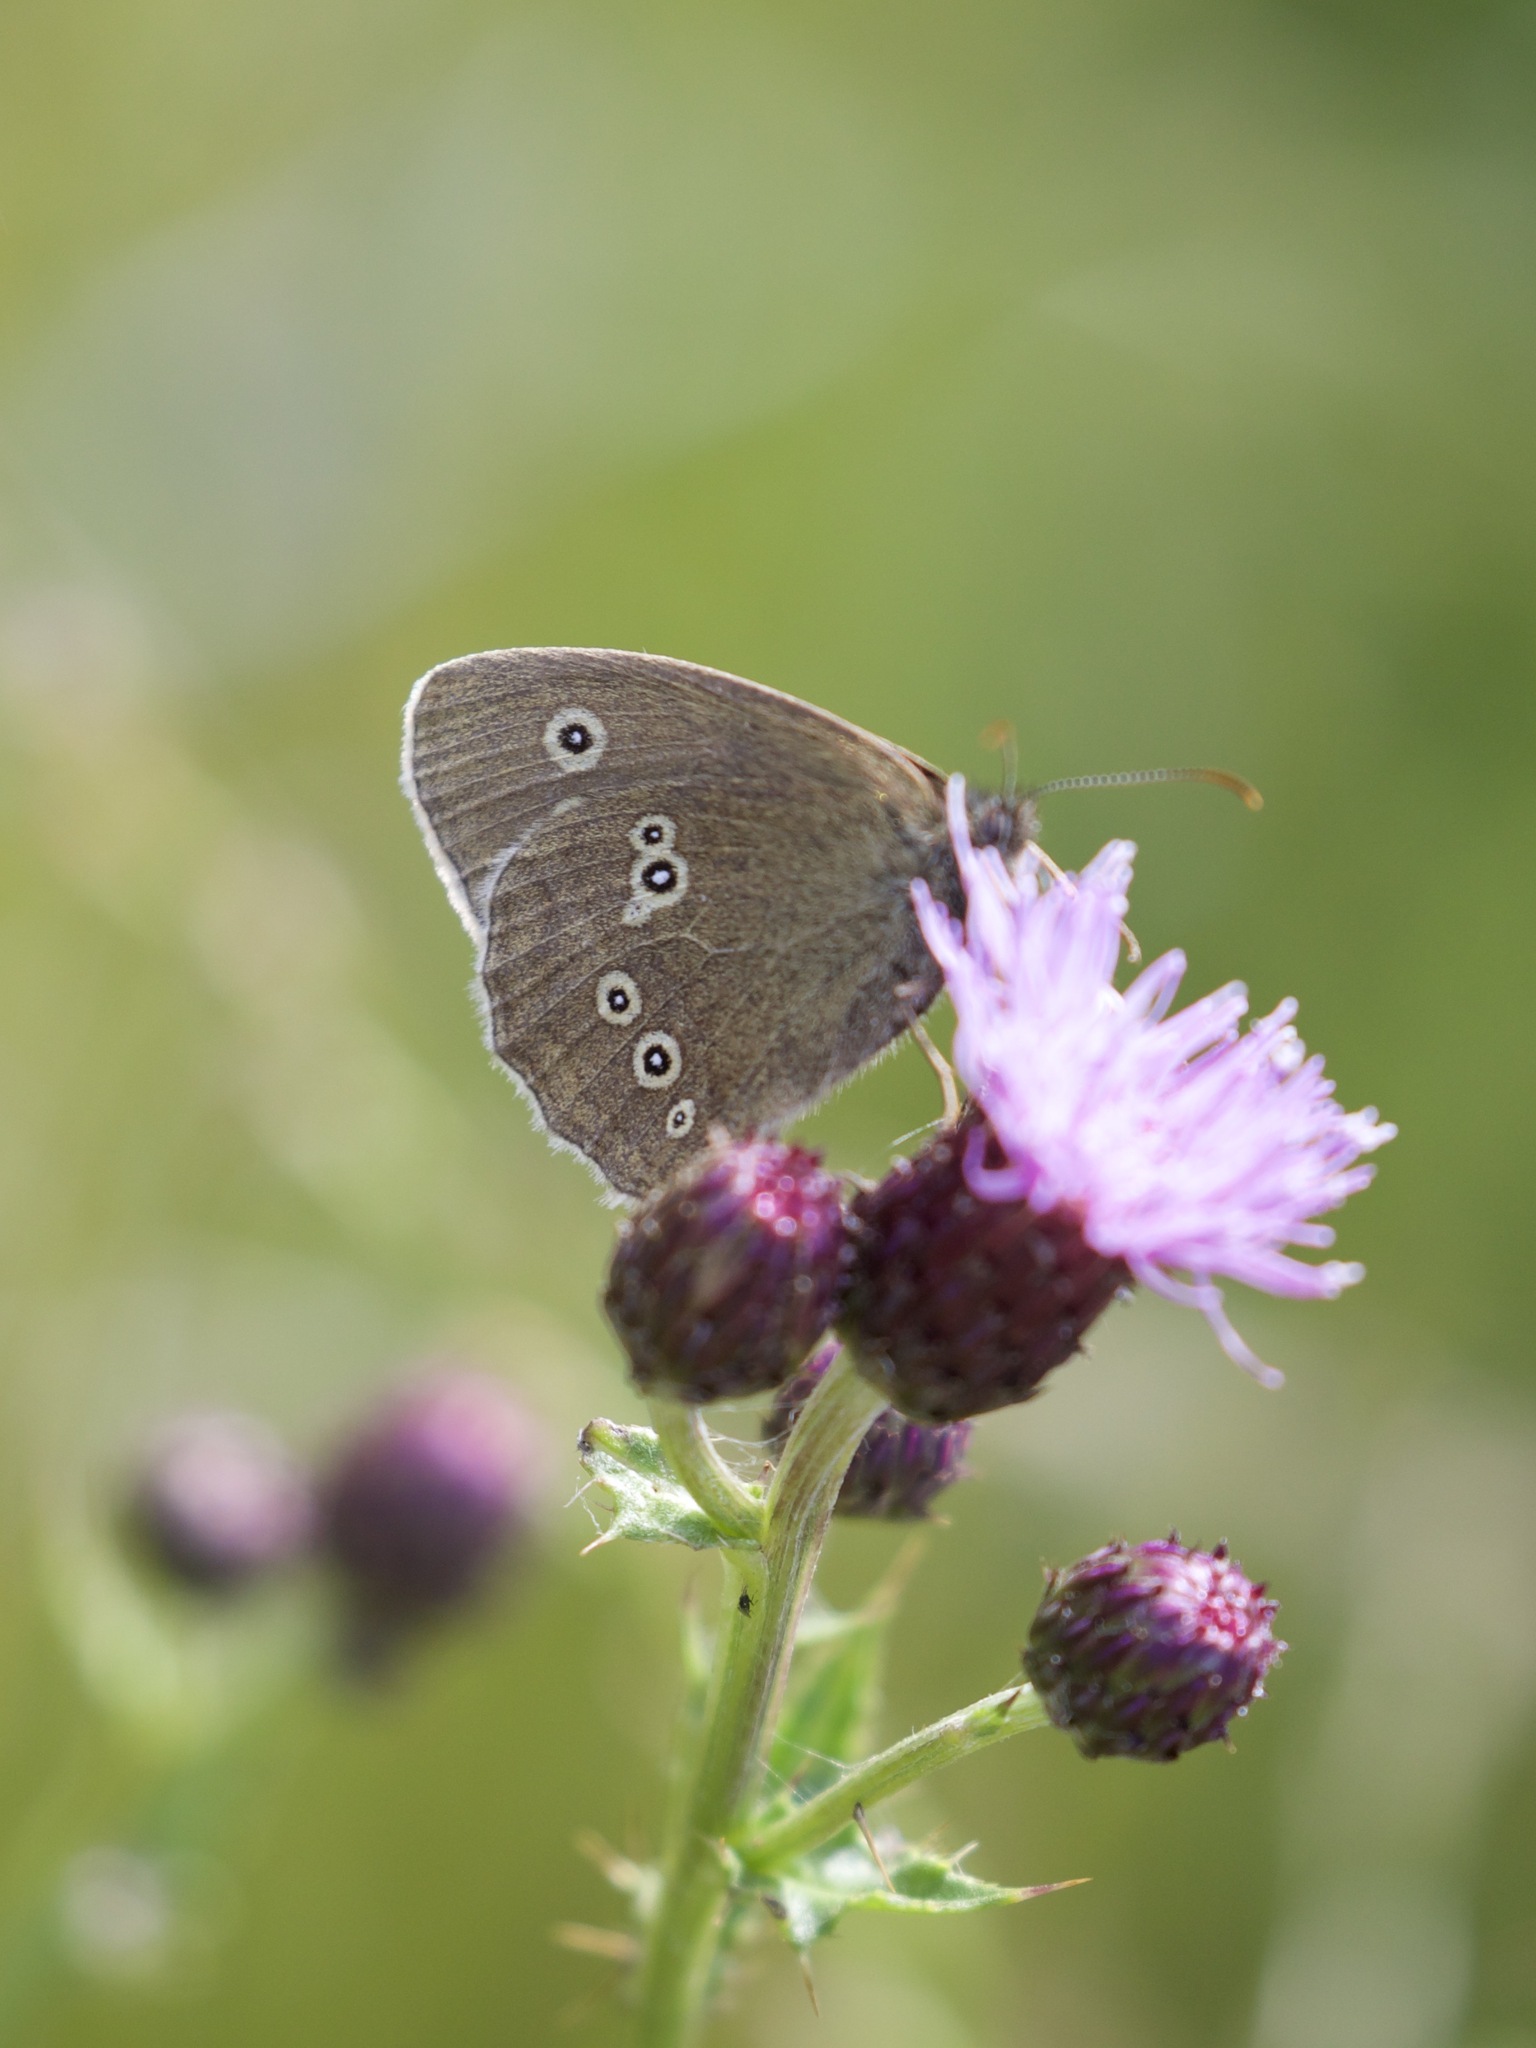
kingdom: Animalia
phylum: Arthropoda
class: Insecta
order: Lepidoptera
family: Nymphalidae
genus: Aphantopus
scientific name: Aphantopus hyperantus
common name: Ringlet
